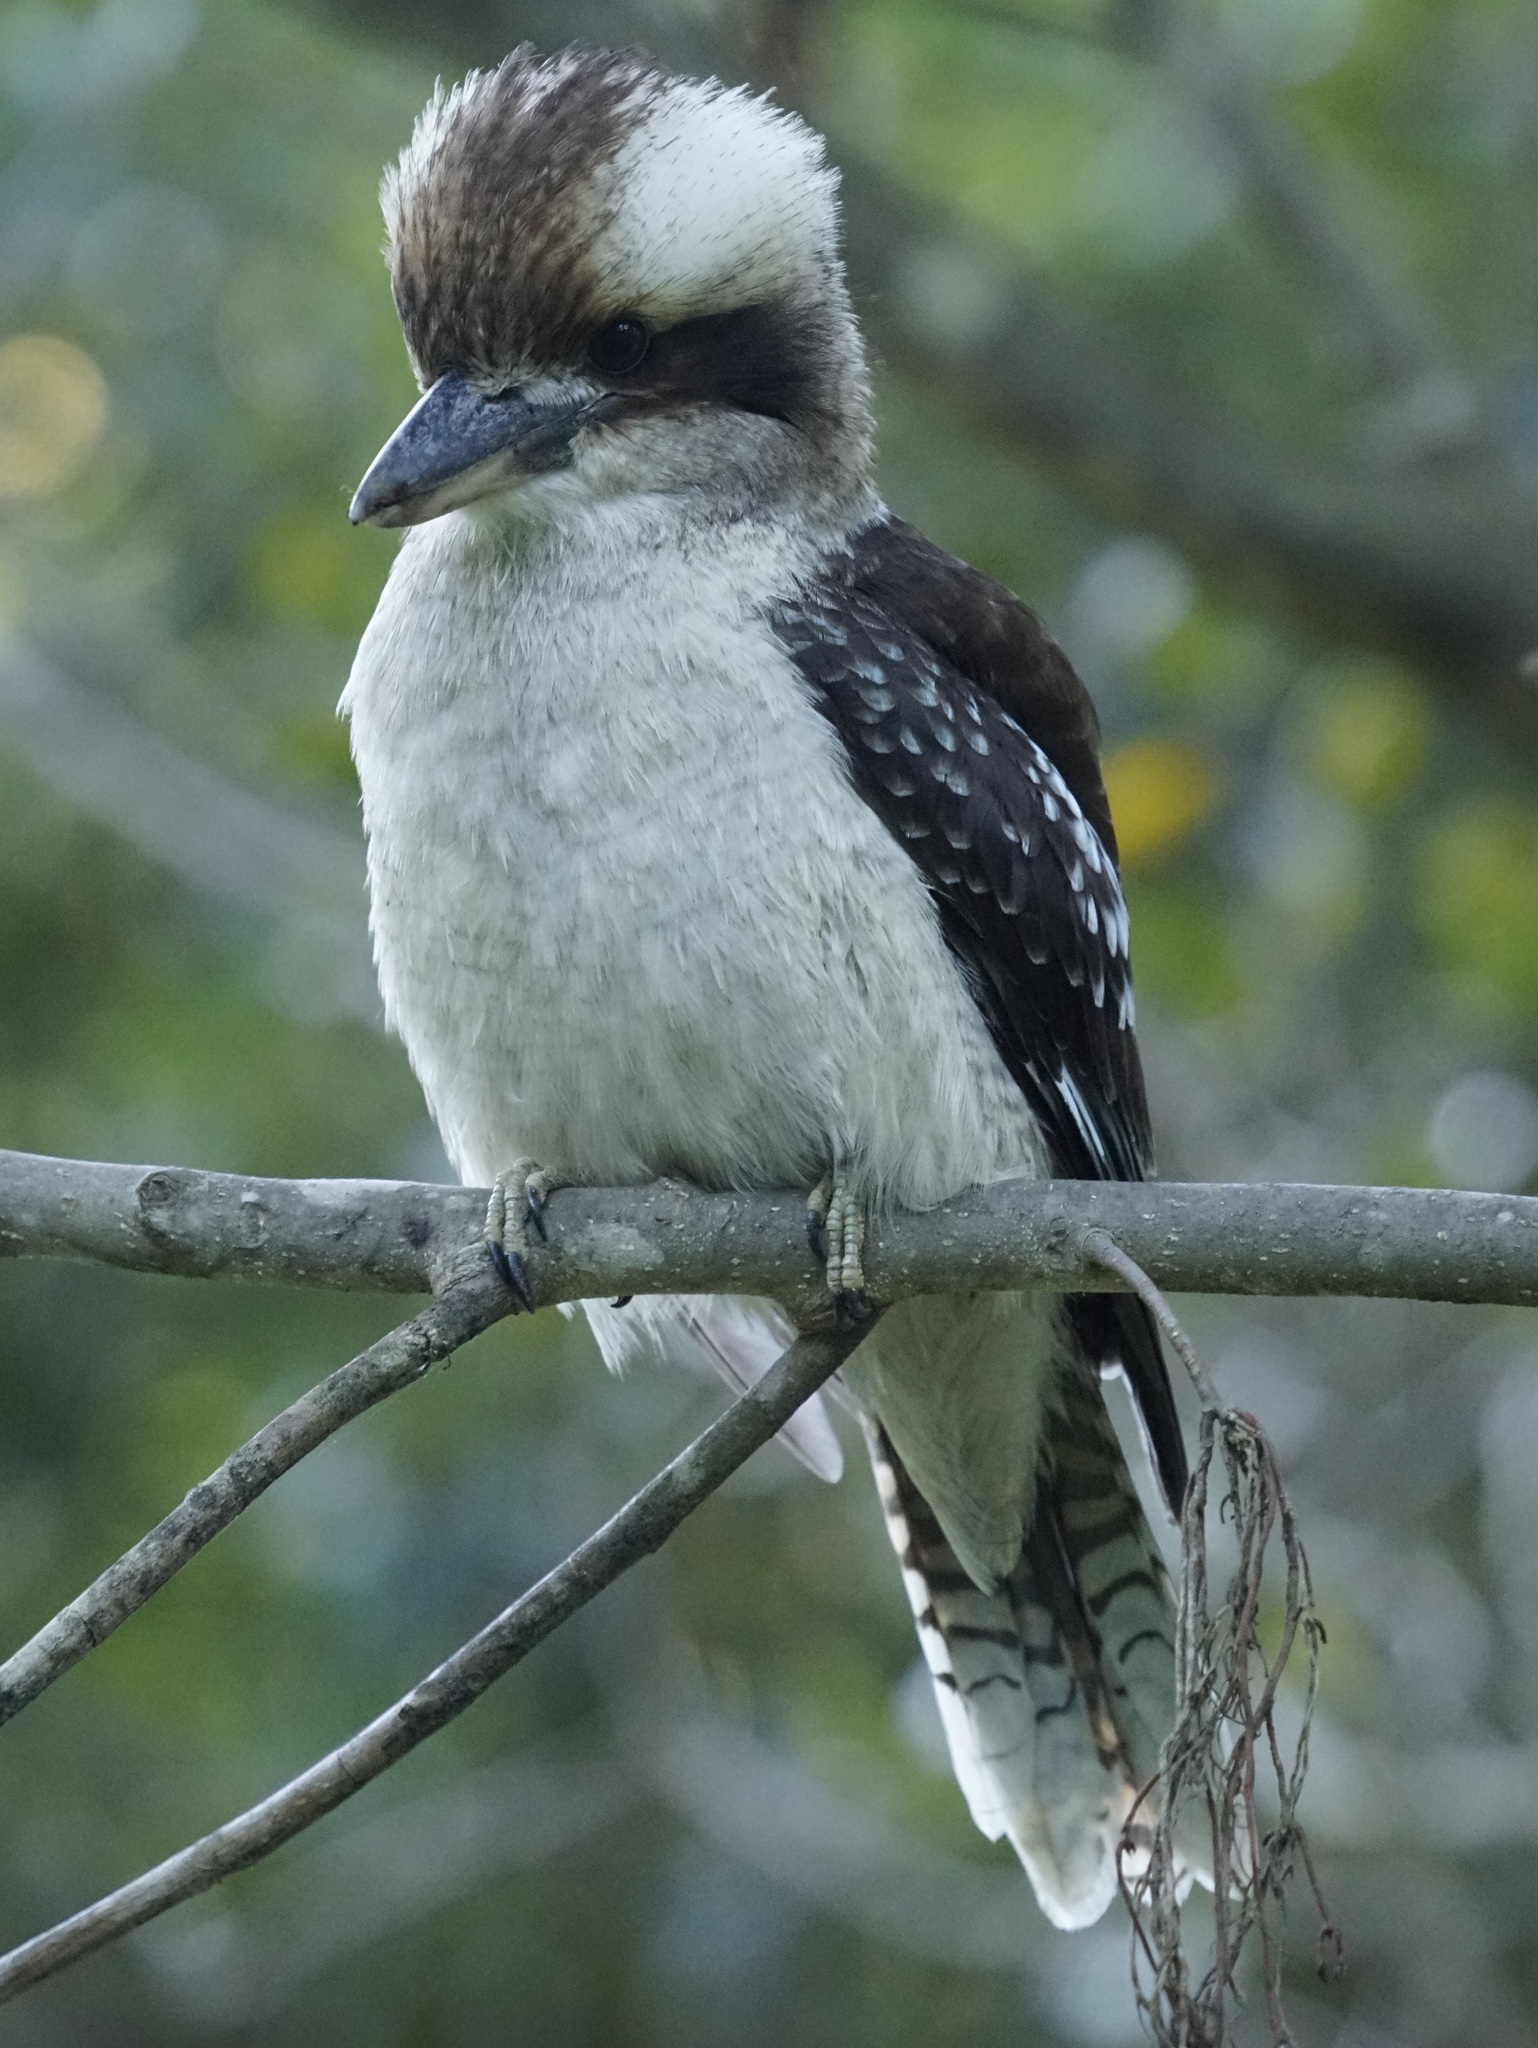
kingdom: Animalia
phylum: Chordata
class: Aves
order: Coraciiformes
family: Alcedinidae
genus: Dacelo
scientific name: Dacelo novaeguineae
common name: Laughing kookaburra
